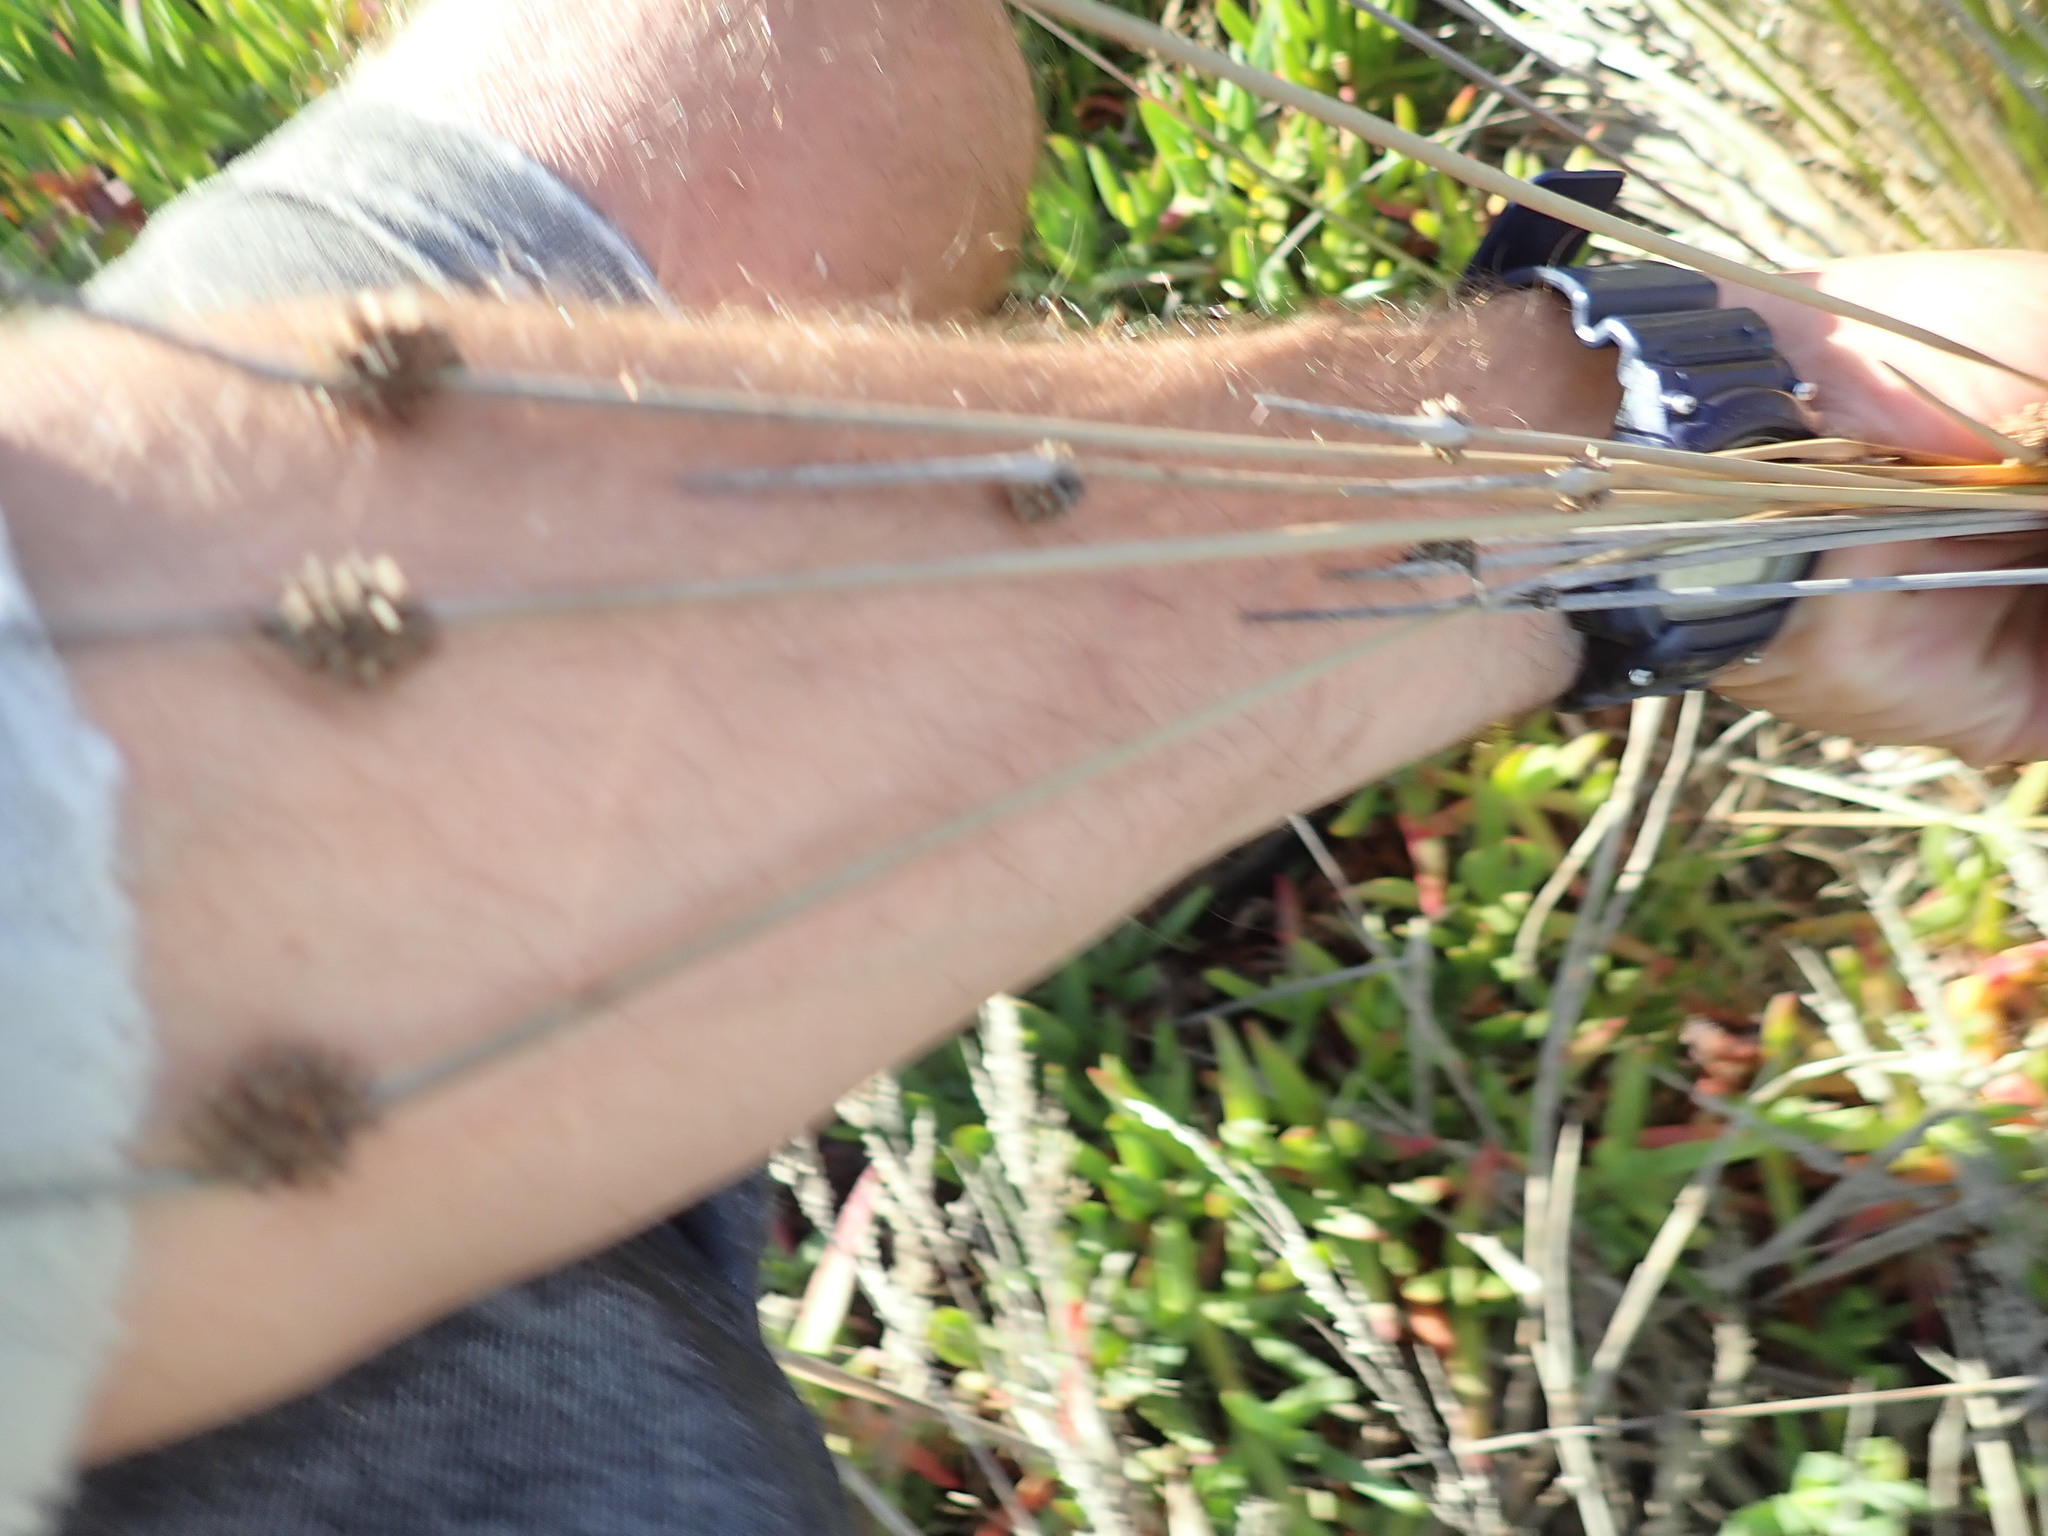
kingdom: Plantae
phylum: Tracheophyta
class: Liliopsida
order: Poales
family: Cyperaceae
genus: Ficinia
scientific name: Ficinia nodosa
